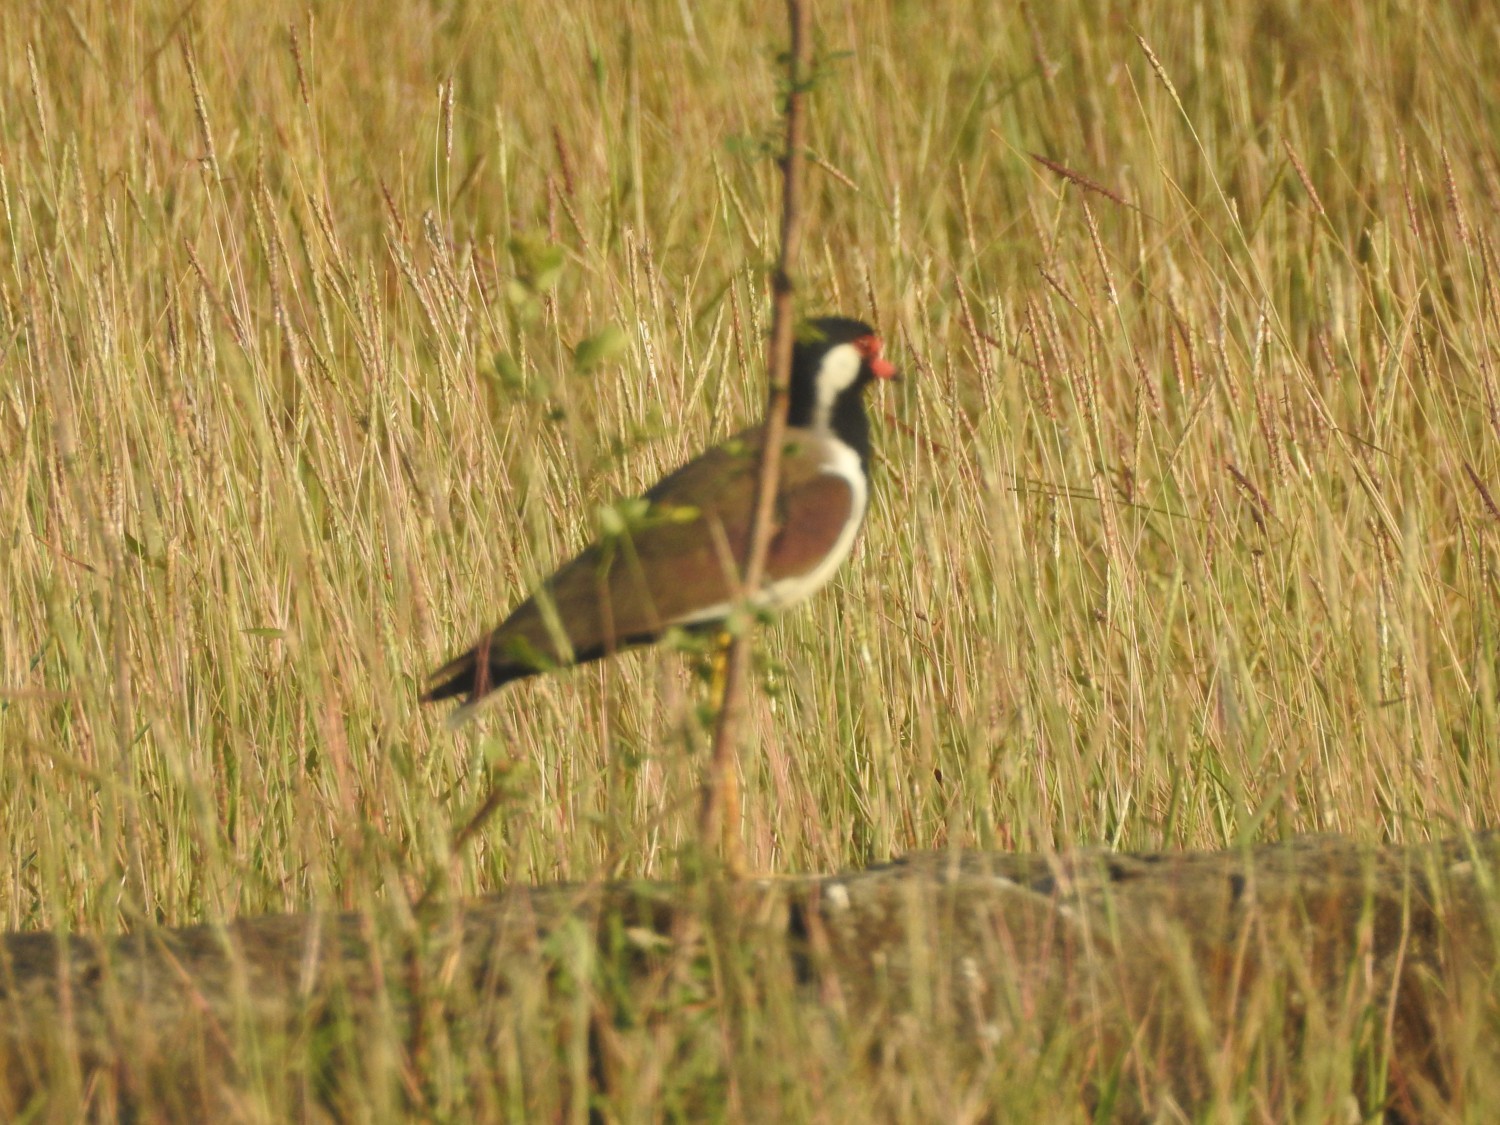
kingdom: Animalia
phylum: Chordata
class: Aves
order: Charadriiformes
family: Charadriidae
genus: Vanellus
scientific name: Vanellus indicus
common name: Red-wattled lapwing
